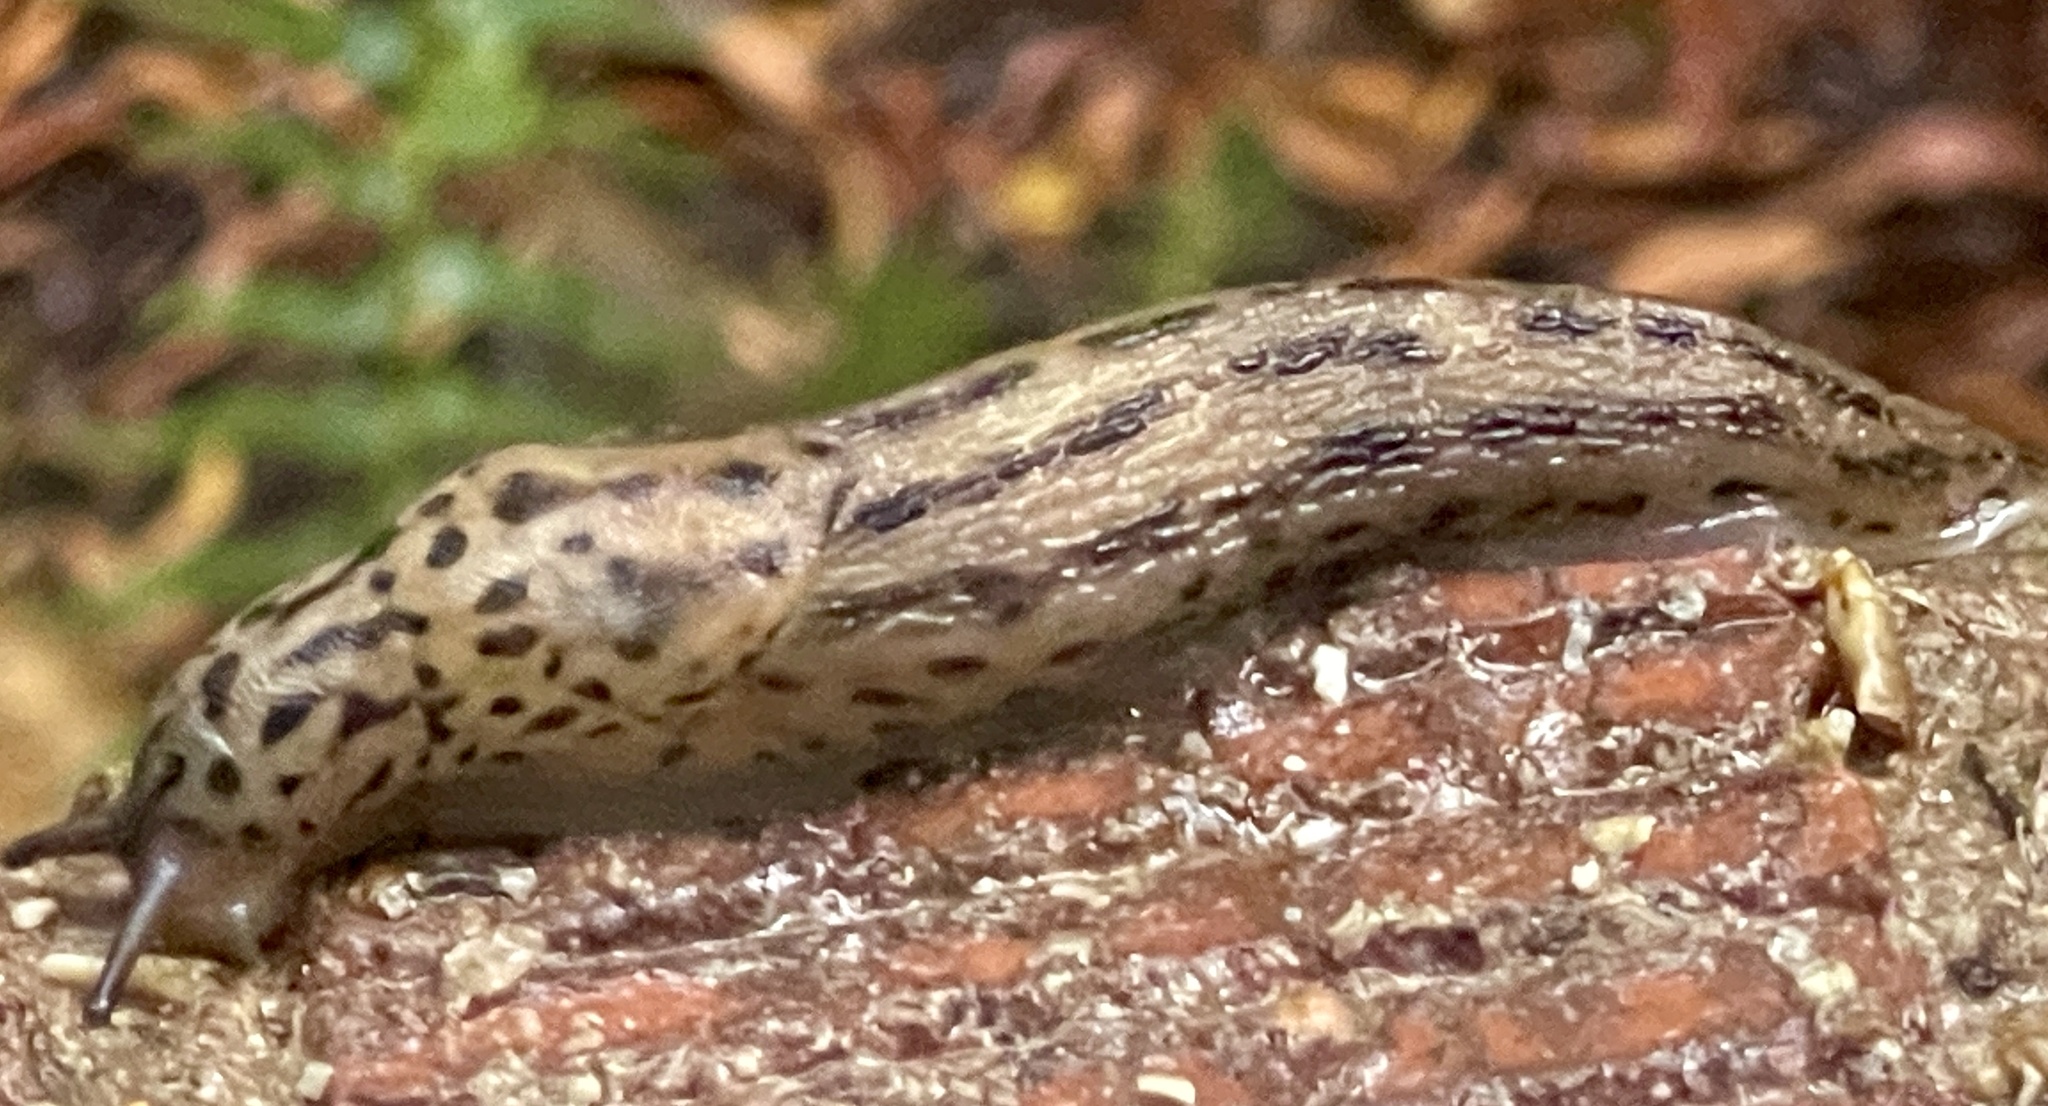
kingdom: Animalia
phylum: Mollusca
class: Gastropoda
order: Stylommatophora
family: Limacidae
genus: Limax
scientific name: Limax maximus
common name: Great grey slug
